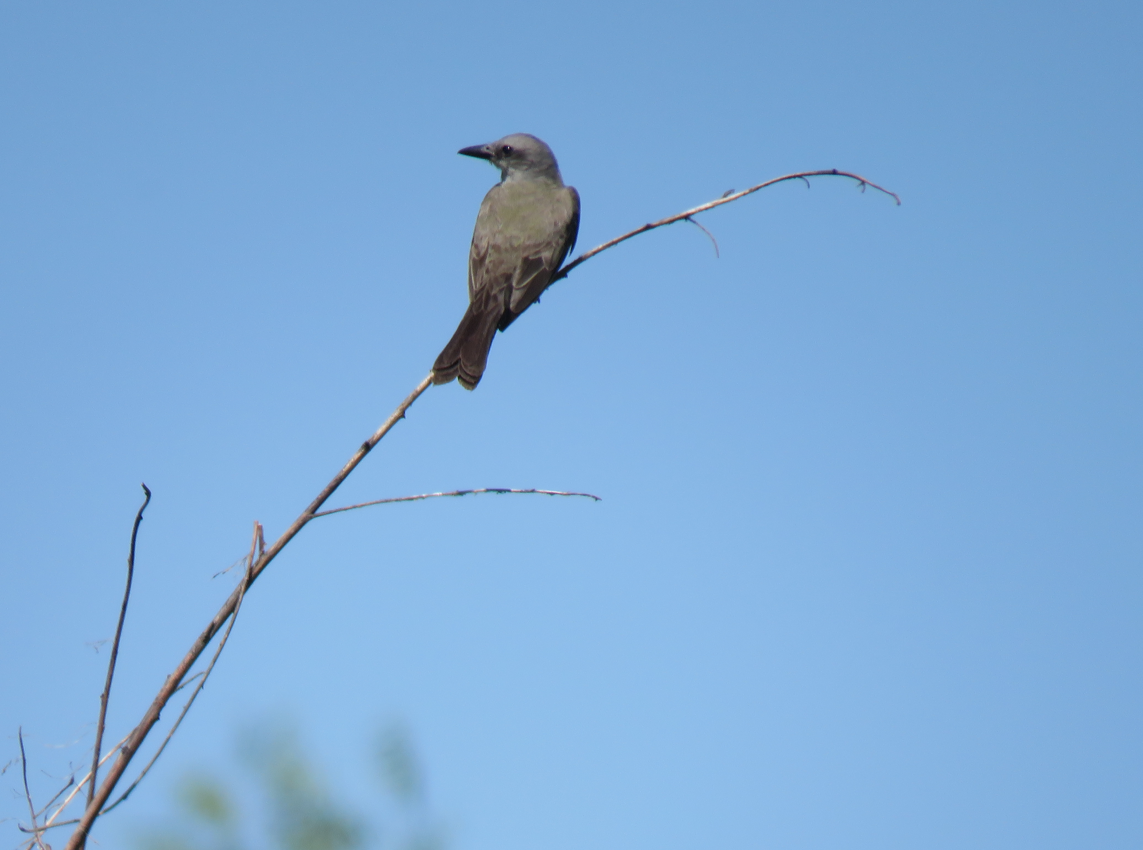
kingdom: Animalia
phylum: Chordata
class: Aves
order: Passeriformes
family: Tyrannidae
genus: Tyrannus
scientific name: Tyrannus melancholicus
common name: Tropical kingbird
